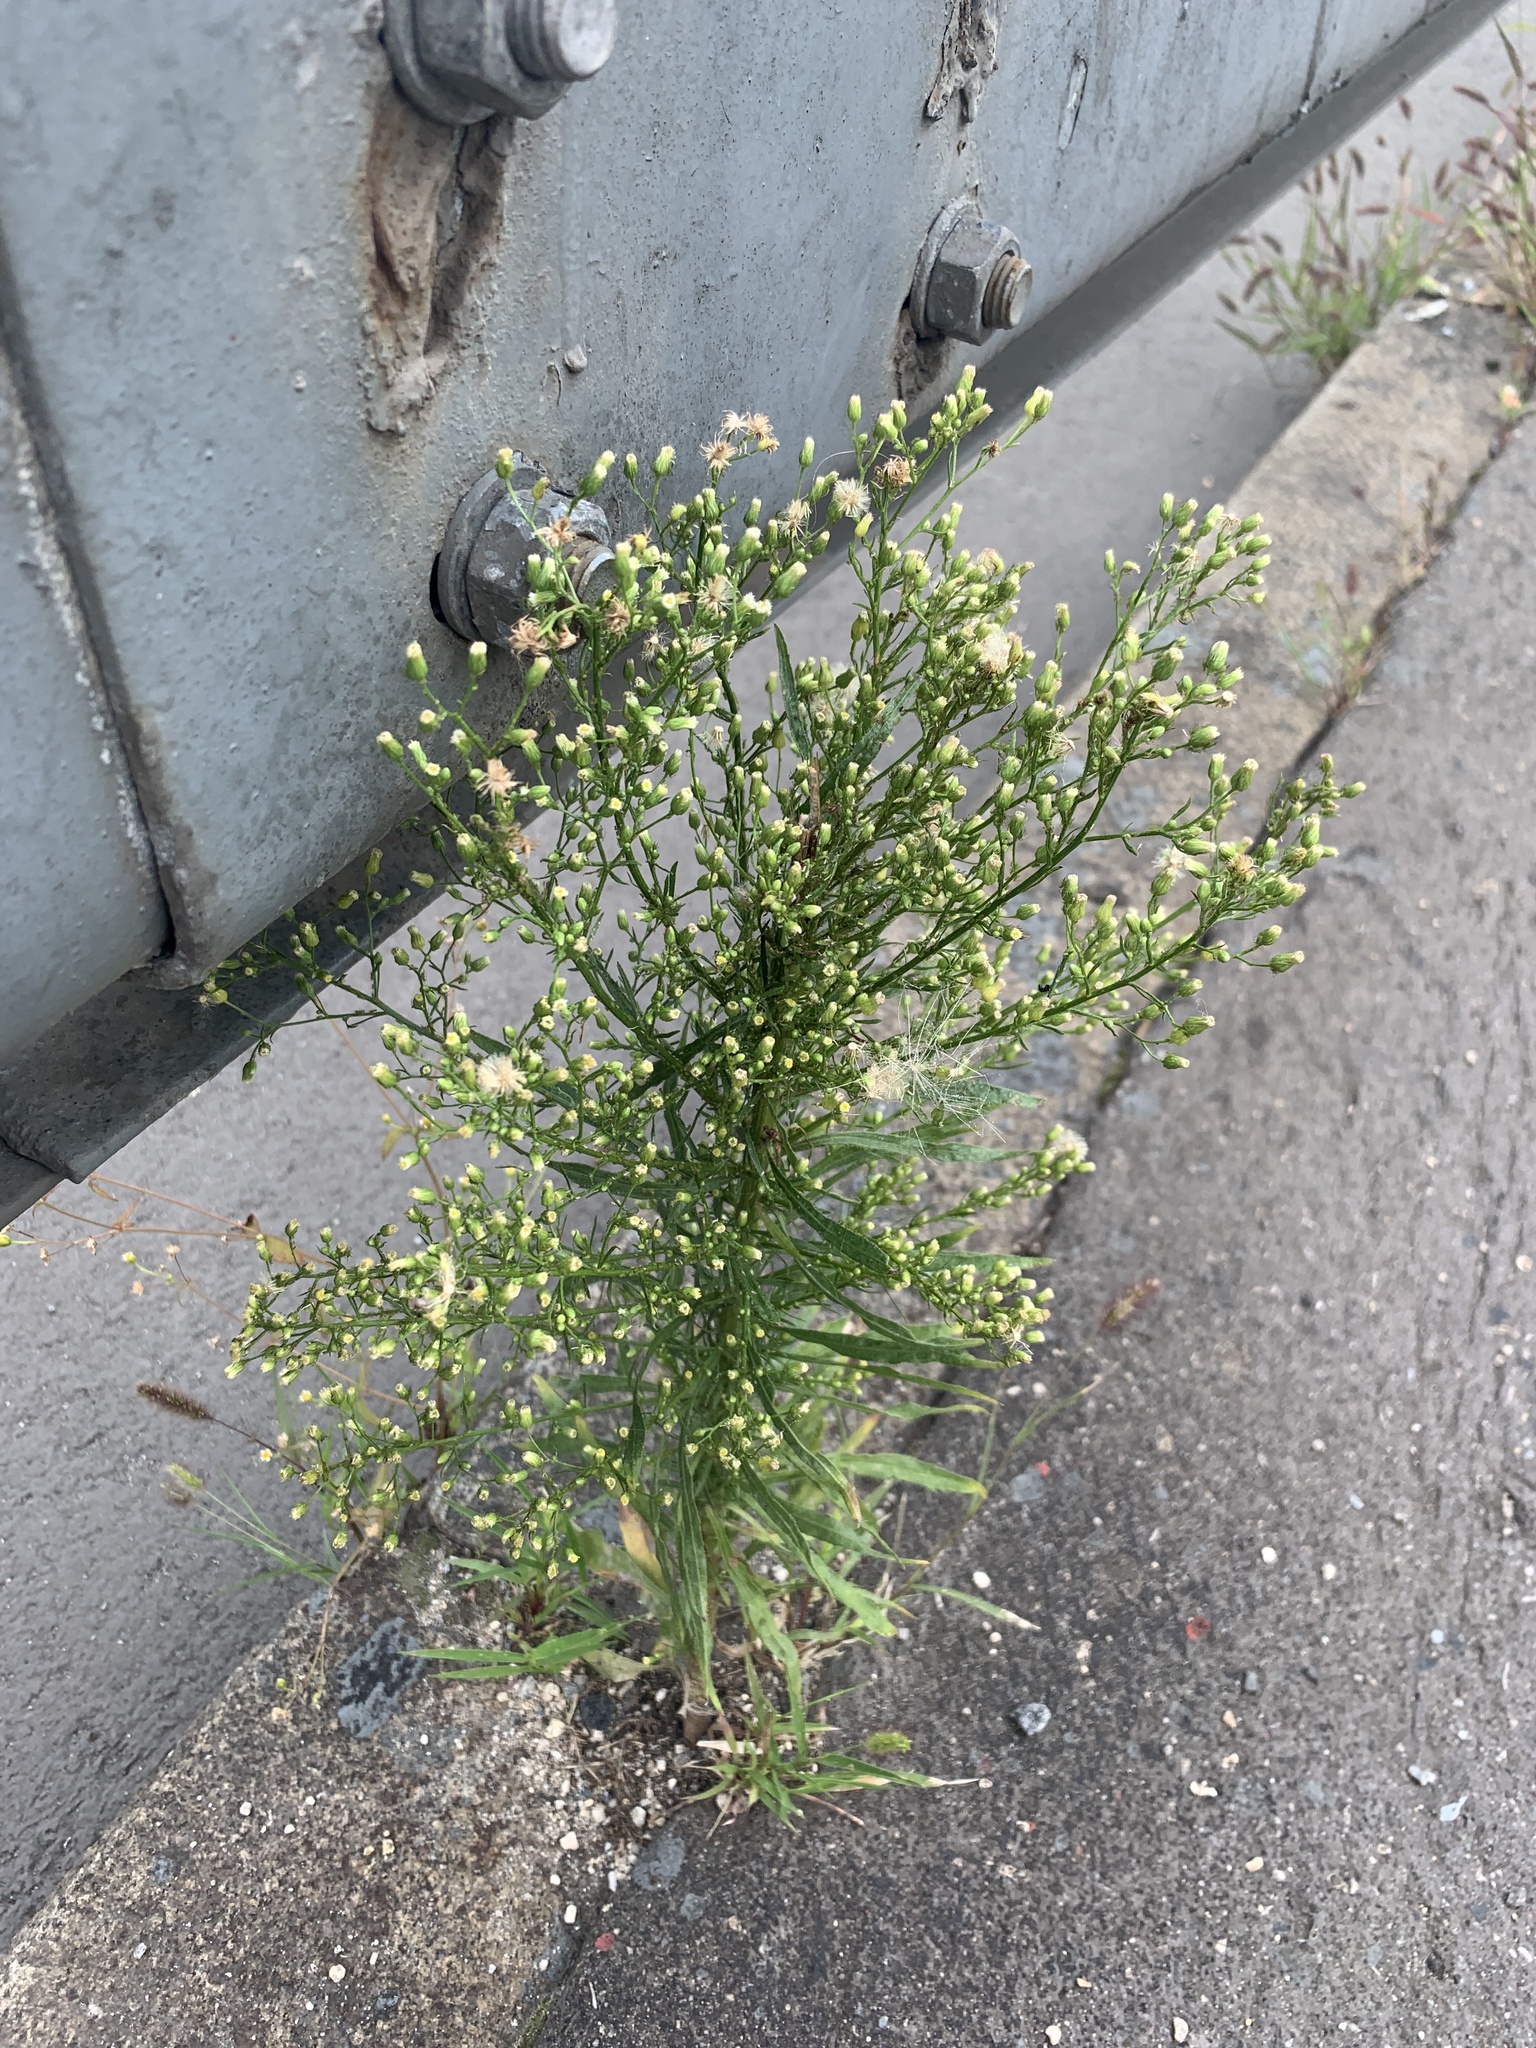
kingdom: Plantae
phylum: Tracheophyta
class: Magnoliopsida
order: Asterales
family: Asteraceae
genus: Erigeron
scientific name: Erigeron canadensis
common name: Canadian fleabane
